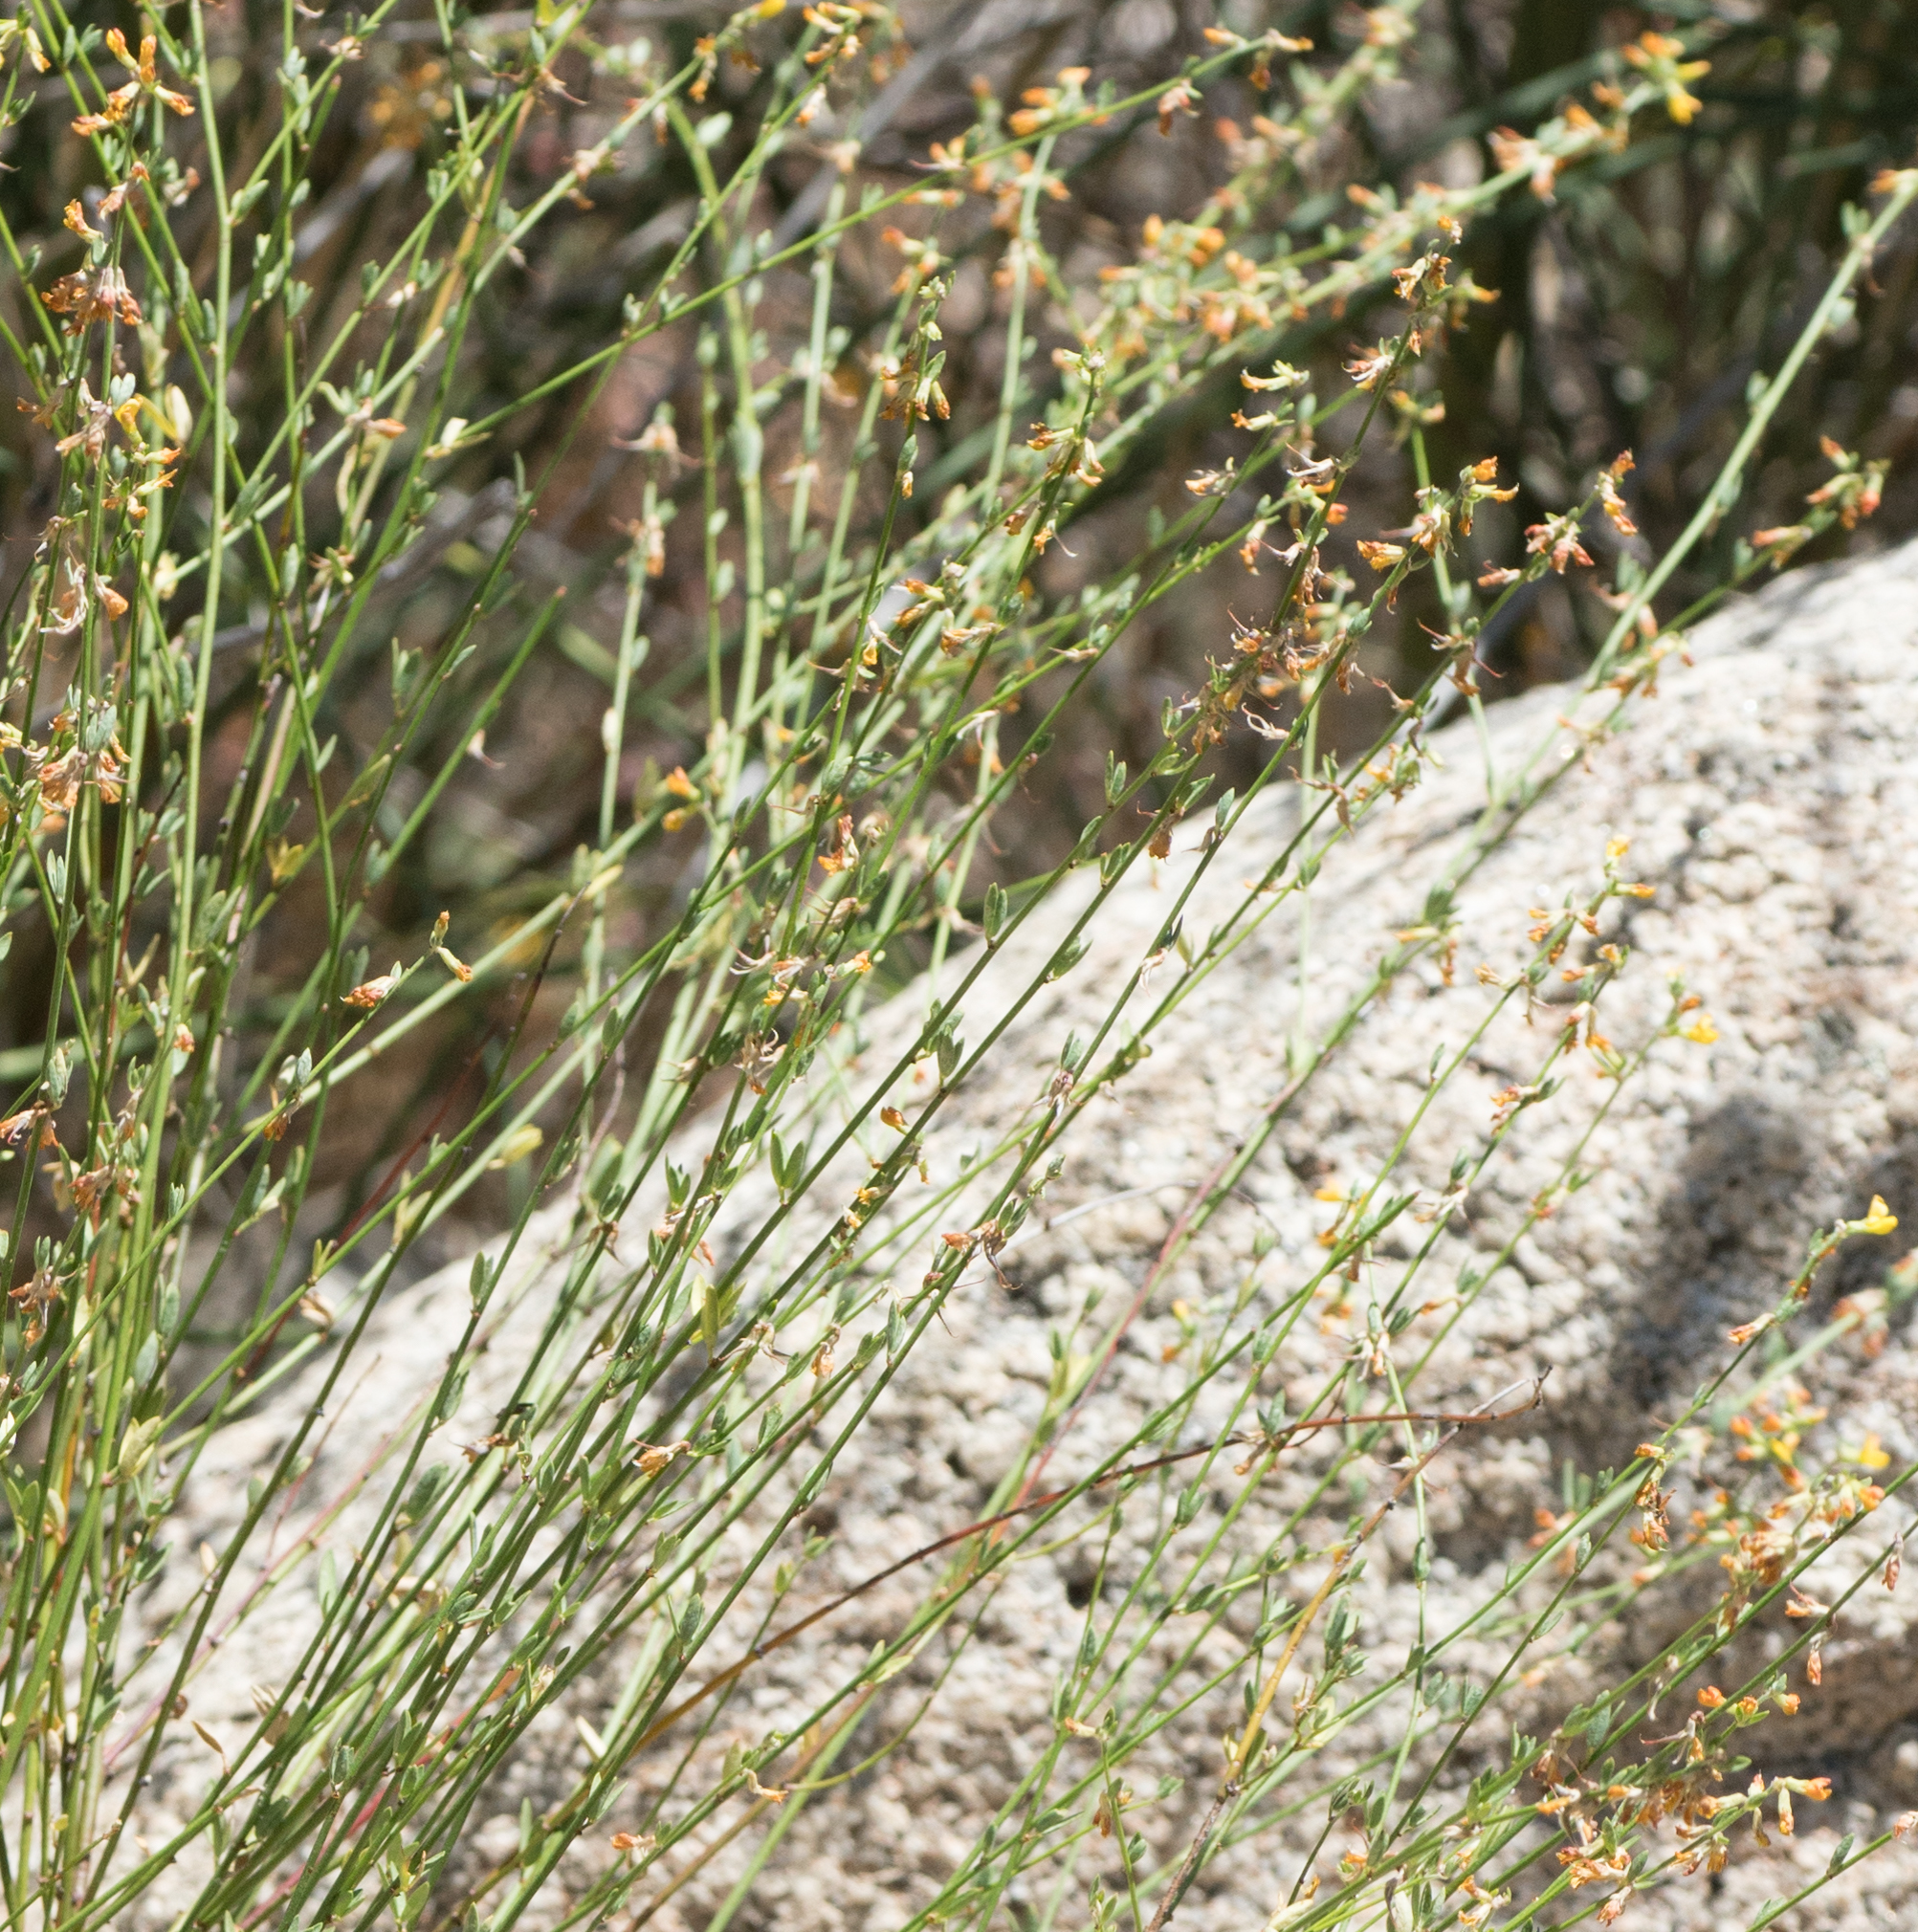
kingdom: Plantae
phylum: Tracheophyta
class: Magnoliopsida
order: Fabales
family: Fabaceae
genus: Acmispon
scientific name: Acmispon glaber
